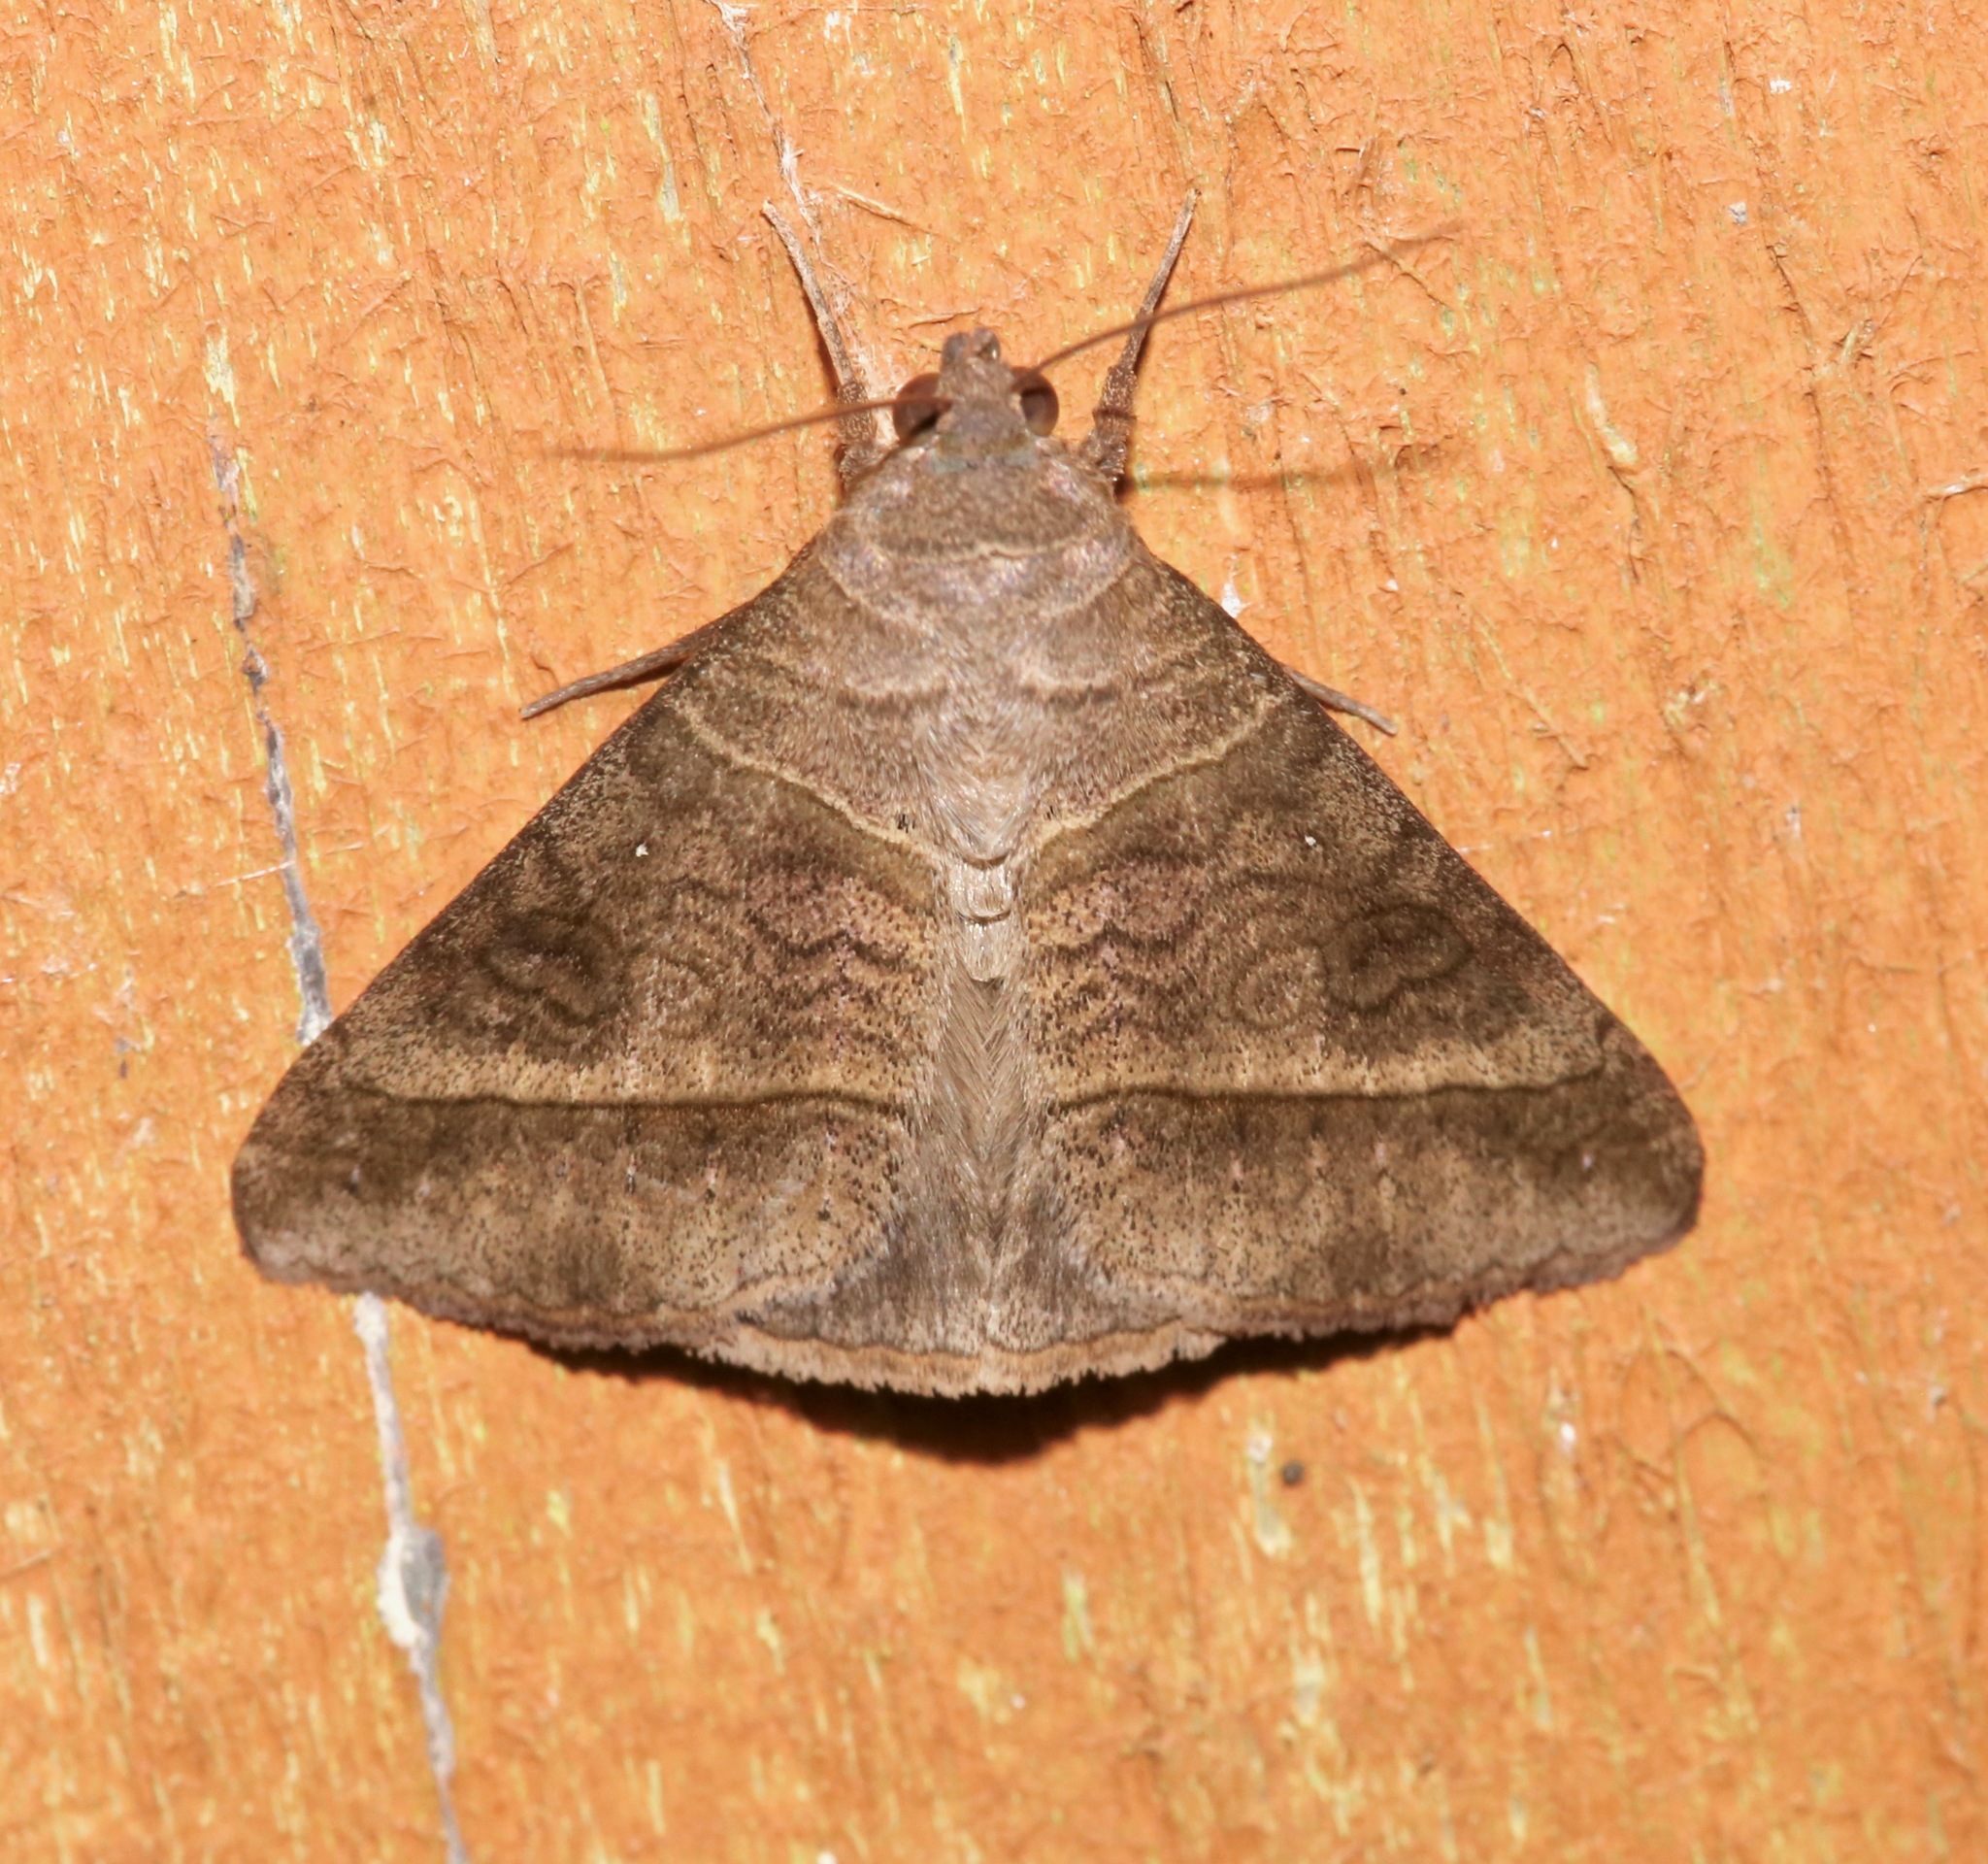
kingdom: Animalia
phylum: Arthropoda
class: Insecta
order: Lepidoptera
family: Erebidae
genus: Mocis
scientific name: Mocis latipes
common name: Striped grass looper
